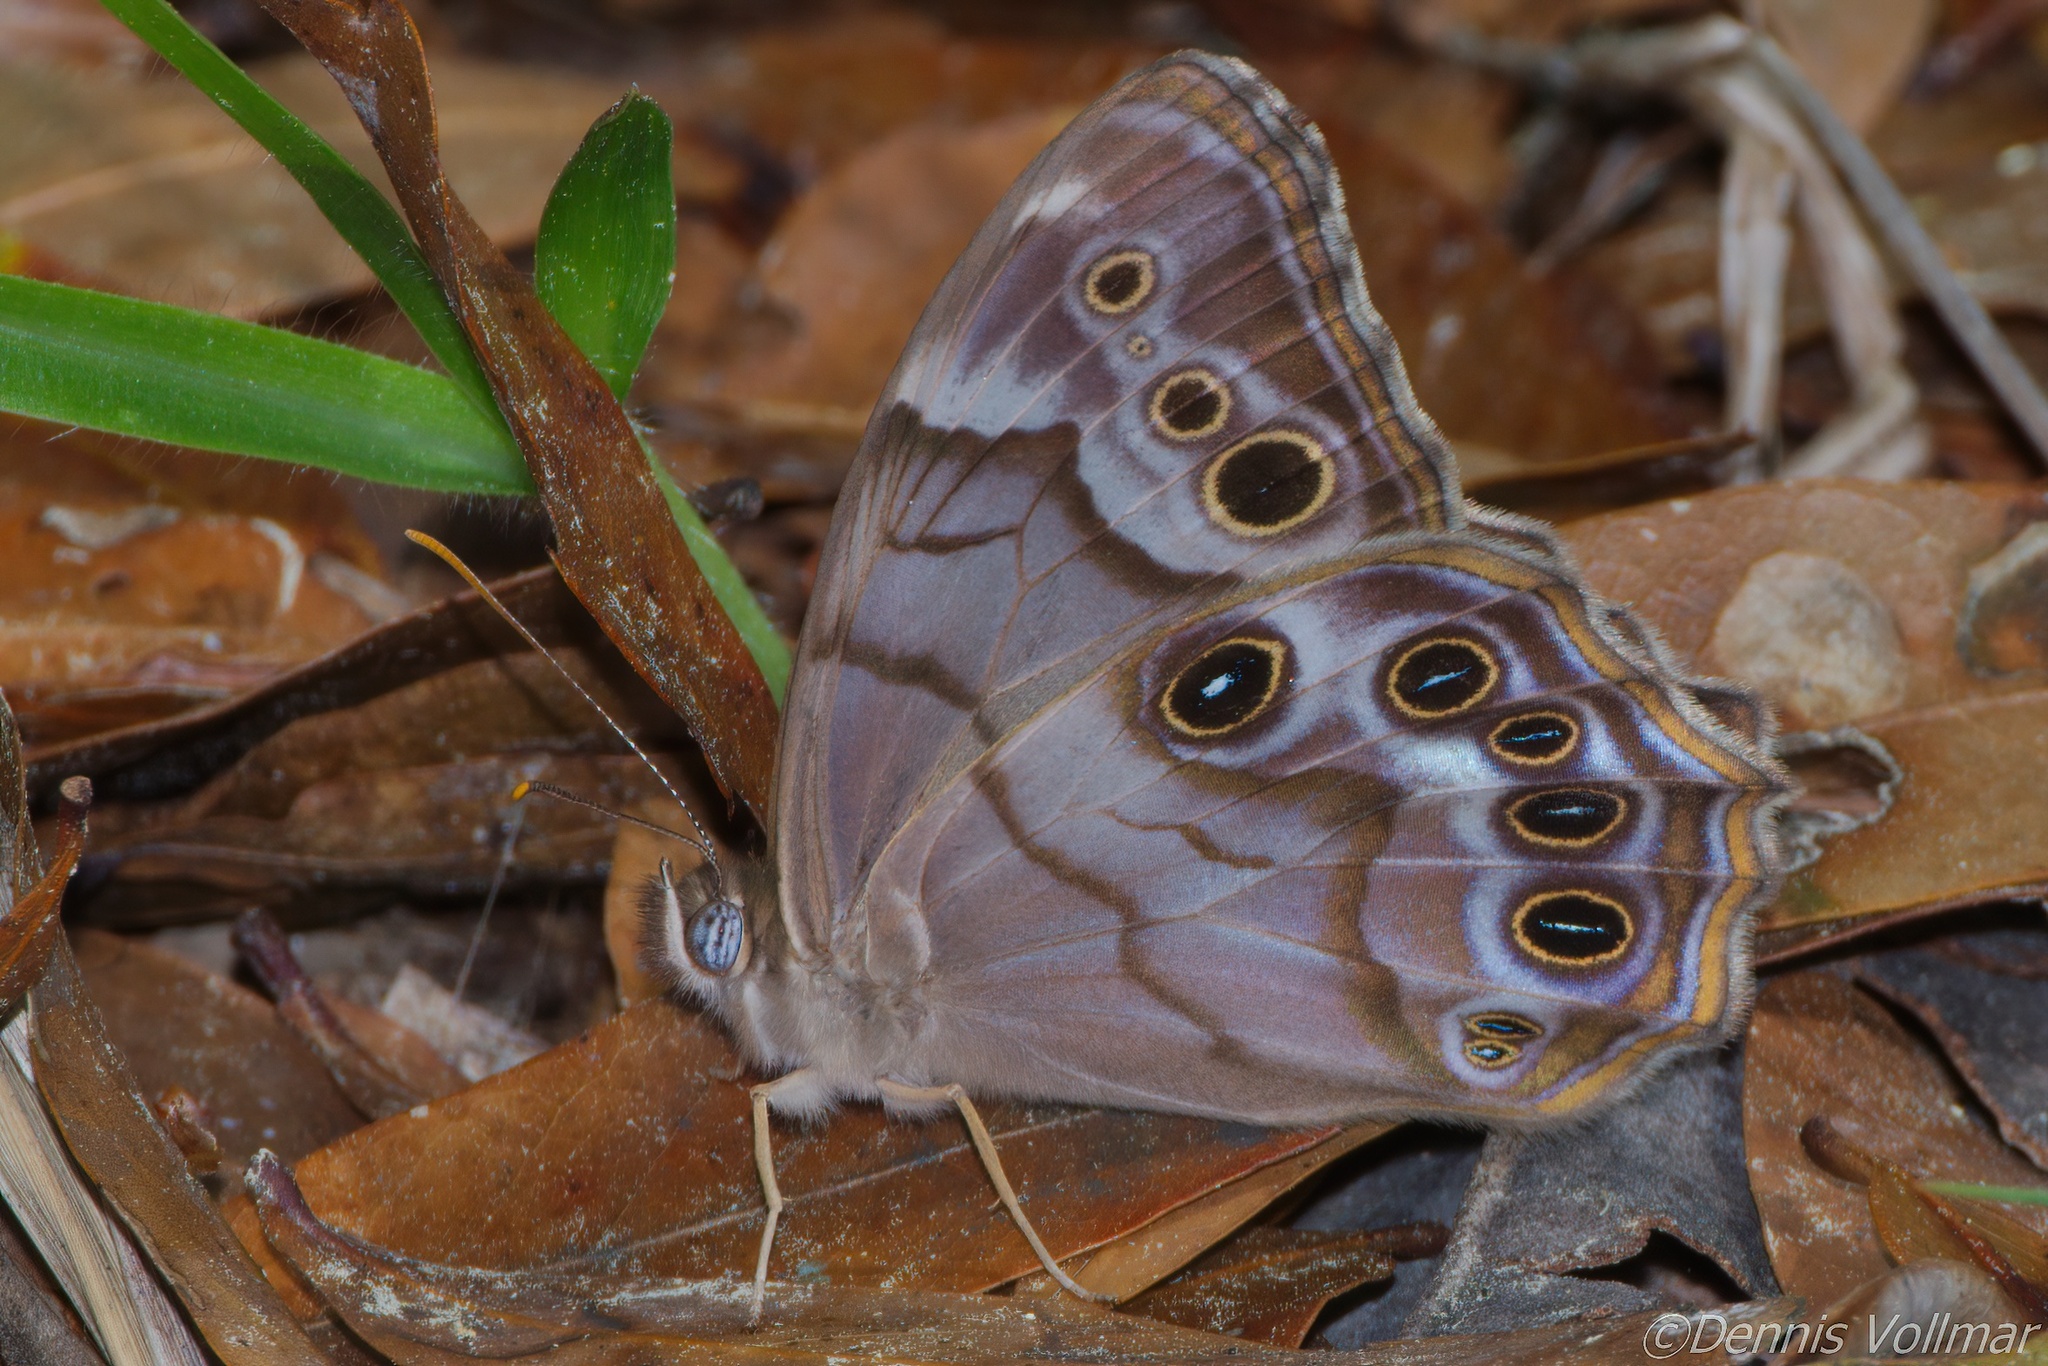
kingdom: Animalia
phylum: Arthropoda
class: Insecta
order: Lepidoptera
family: Nymphalidae
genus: Enodia
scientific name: Enodia portlandia
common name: Southern pearly-eye
